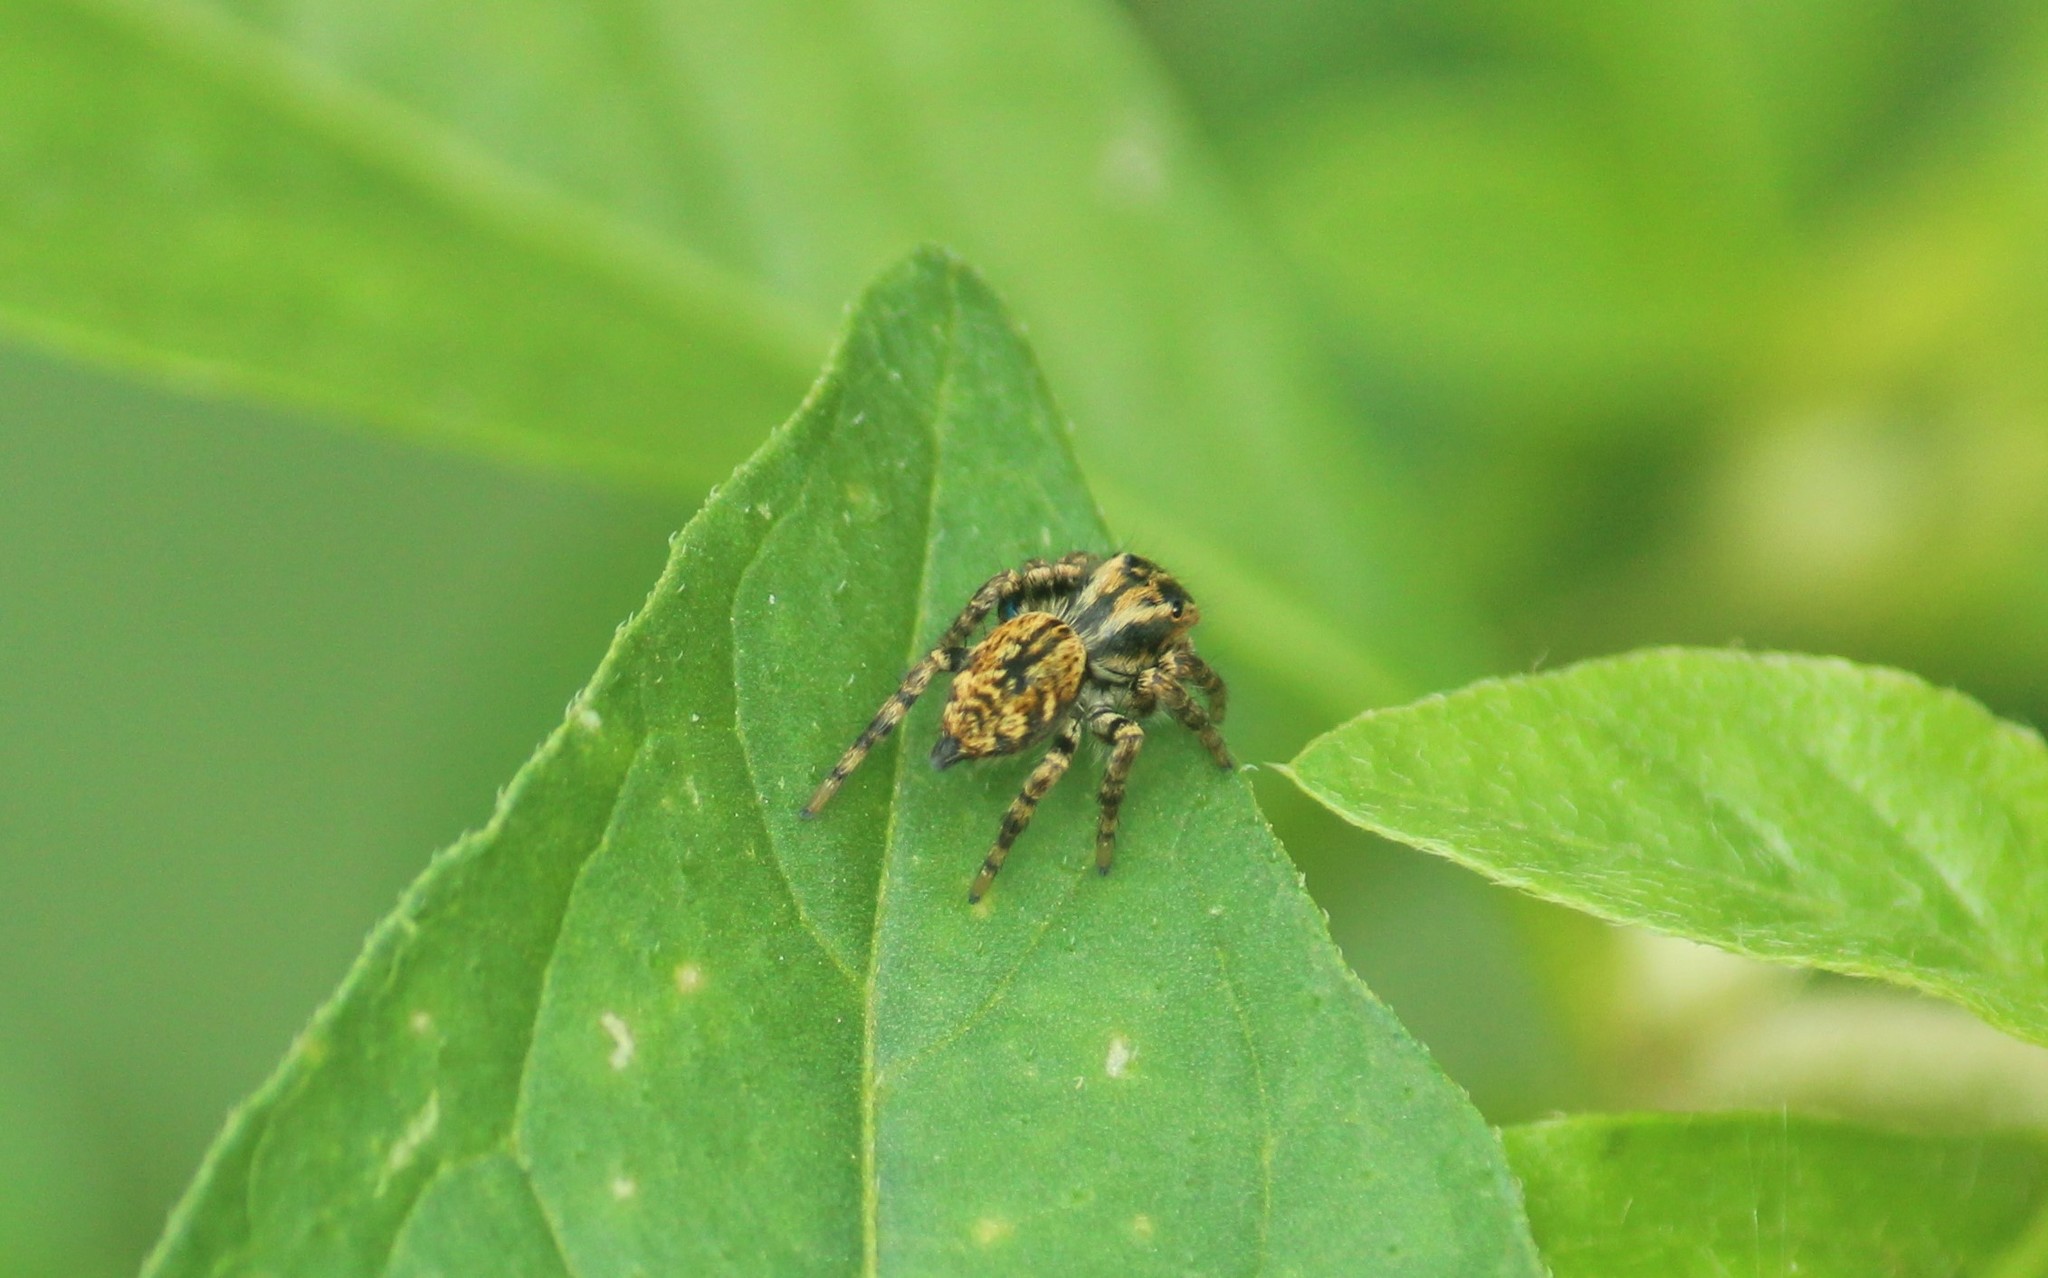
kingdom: Animalia
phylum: Arthropoda
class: Arachnida
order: Araneae
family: Salticidae
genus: Carrhotus
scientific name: Carrhotus viduus
